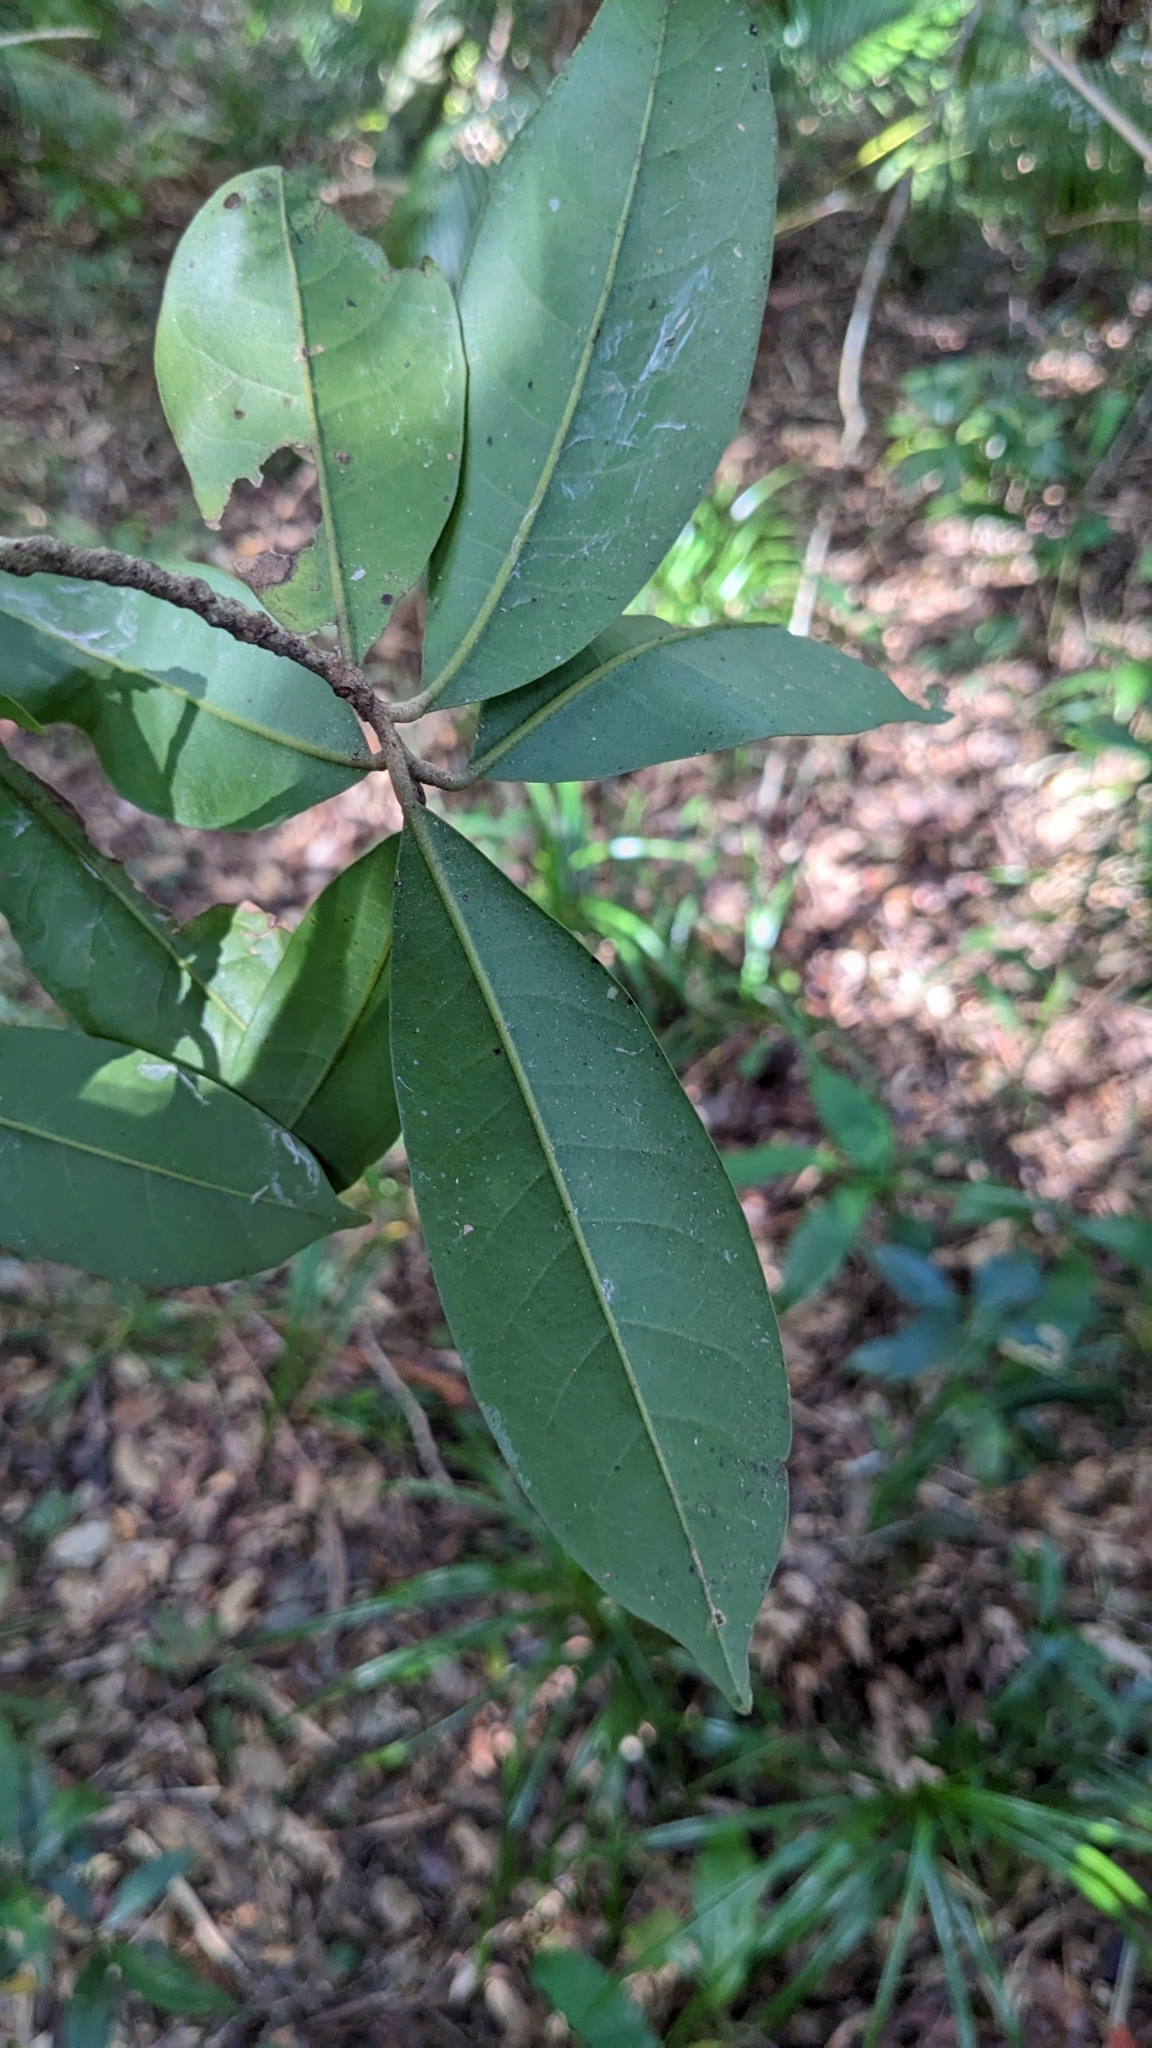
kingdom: Plantae
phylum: Tracheophyta
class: Magnoliopsida
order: Laurales
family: Lauraceae
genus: Beilschmiedia
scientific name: Beilschmiedia tsangii
